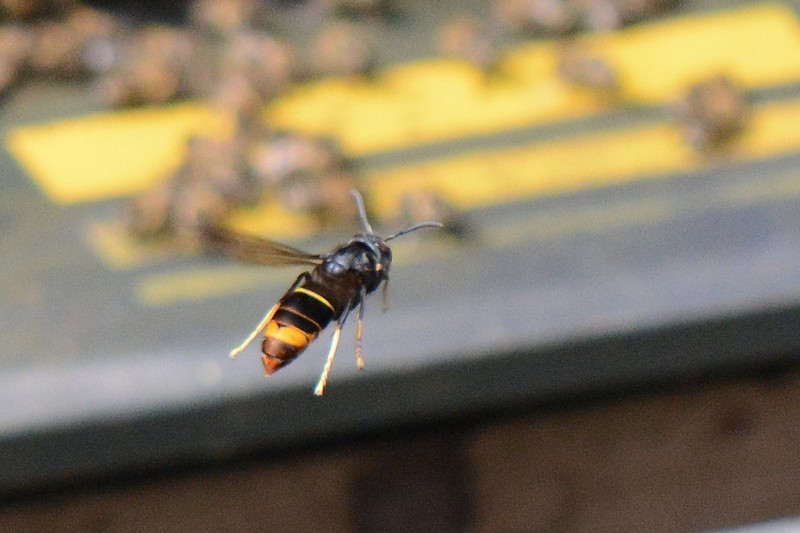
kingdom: Animalia
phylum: Arthropoda
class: Insecta
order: Hymenoptera
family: Vespidae
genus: Vespa
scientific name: Vespa velutina
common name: Asian hornet
